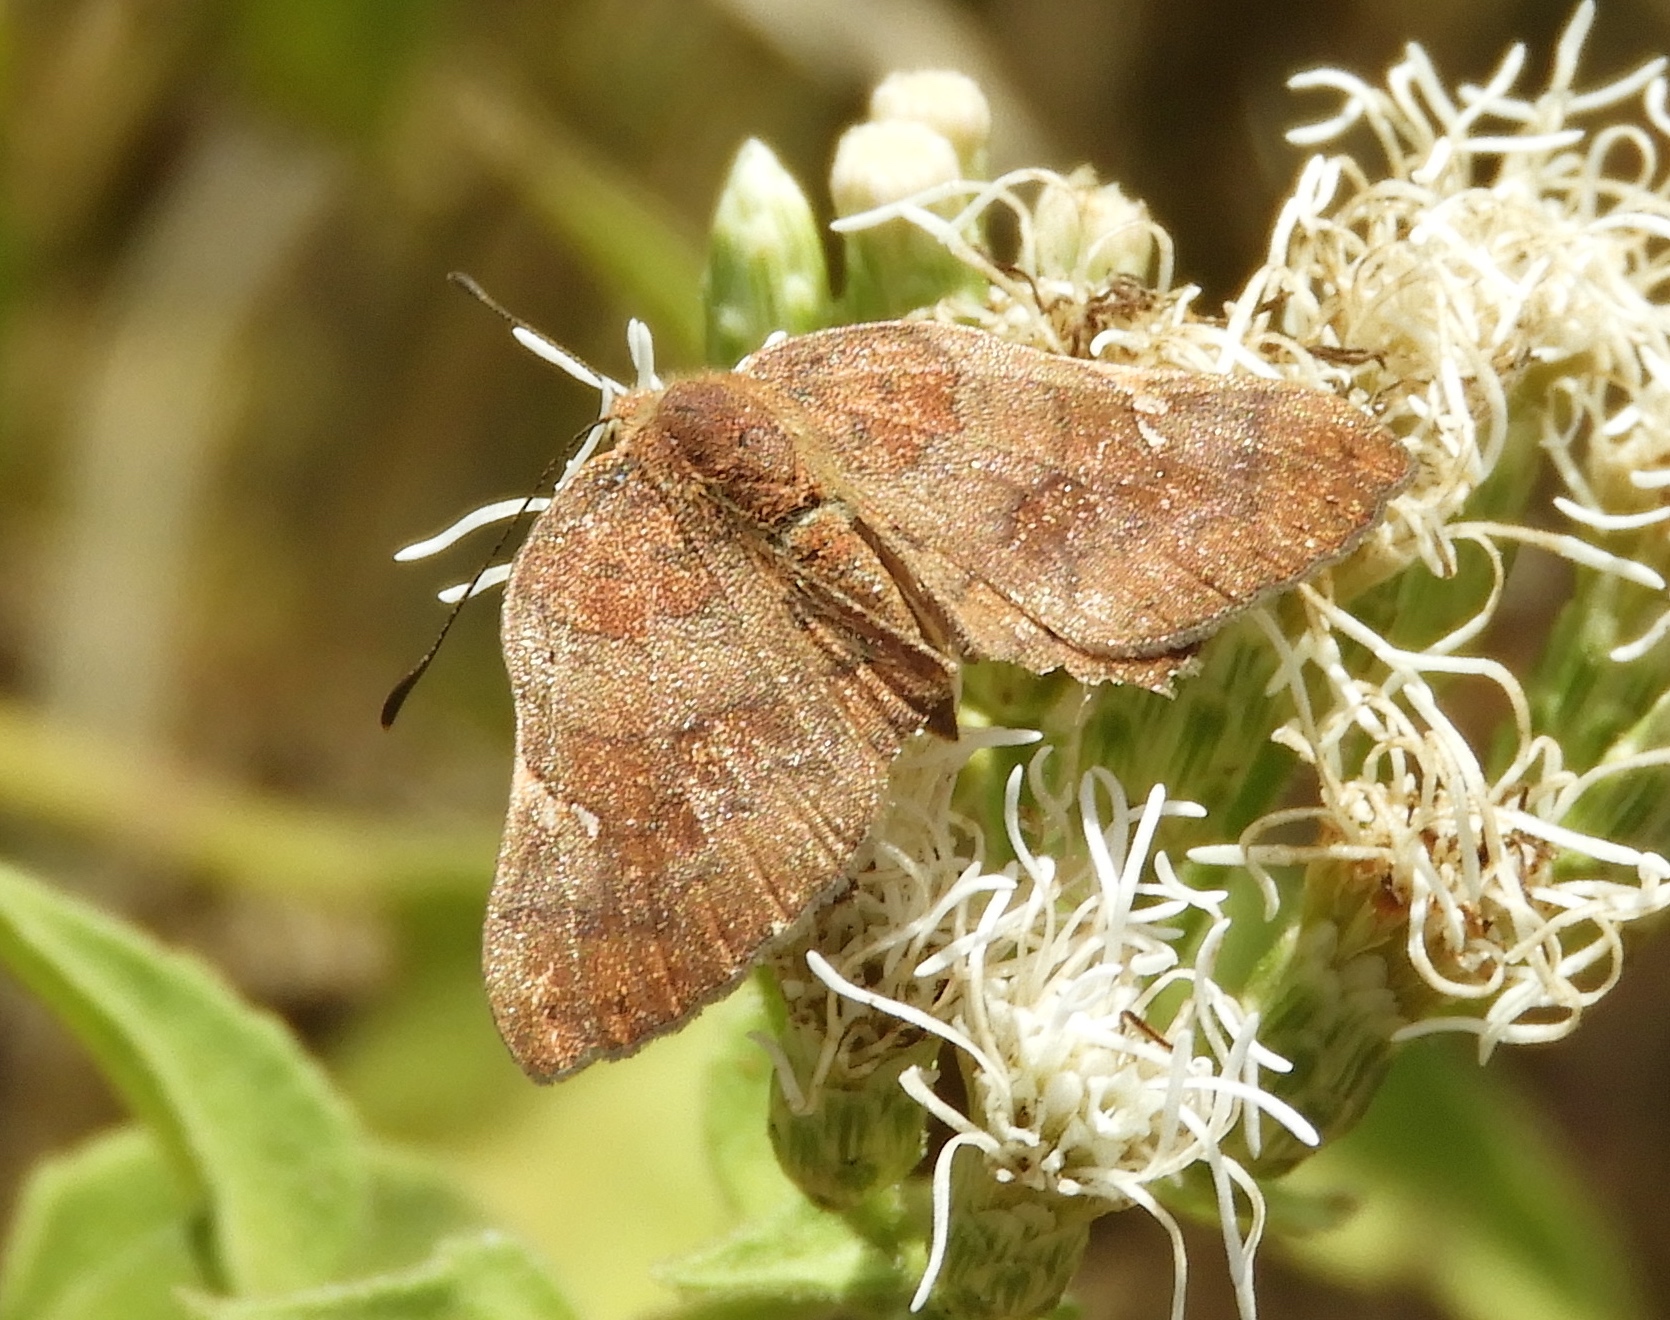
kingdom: Animalia
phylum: Arthropoda
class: Insecta
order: Lepidoptera
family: Riodinidae
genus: Curvie
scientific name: Curvie emesia
